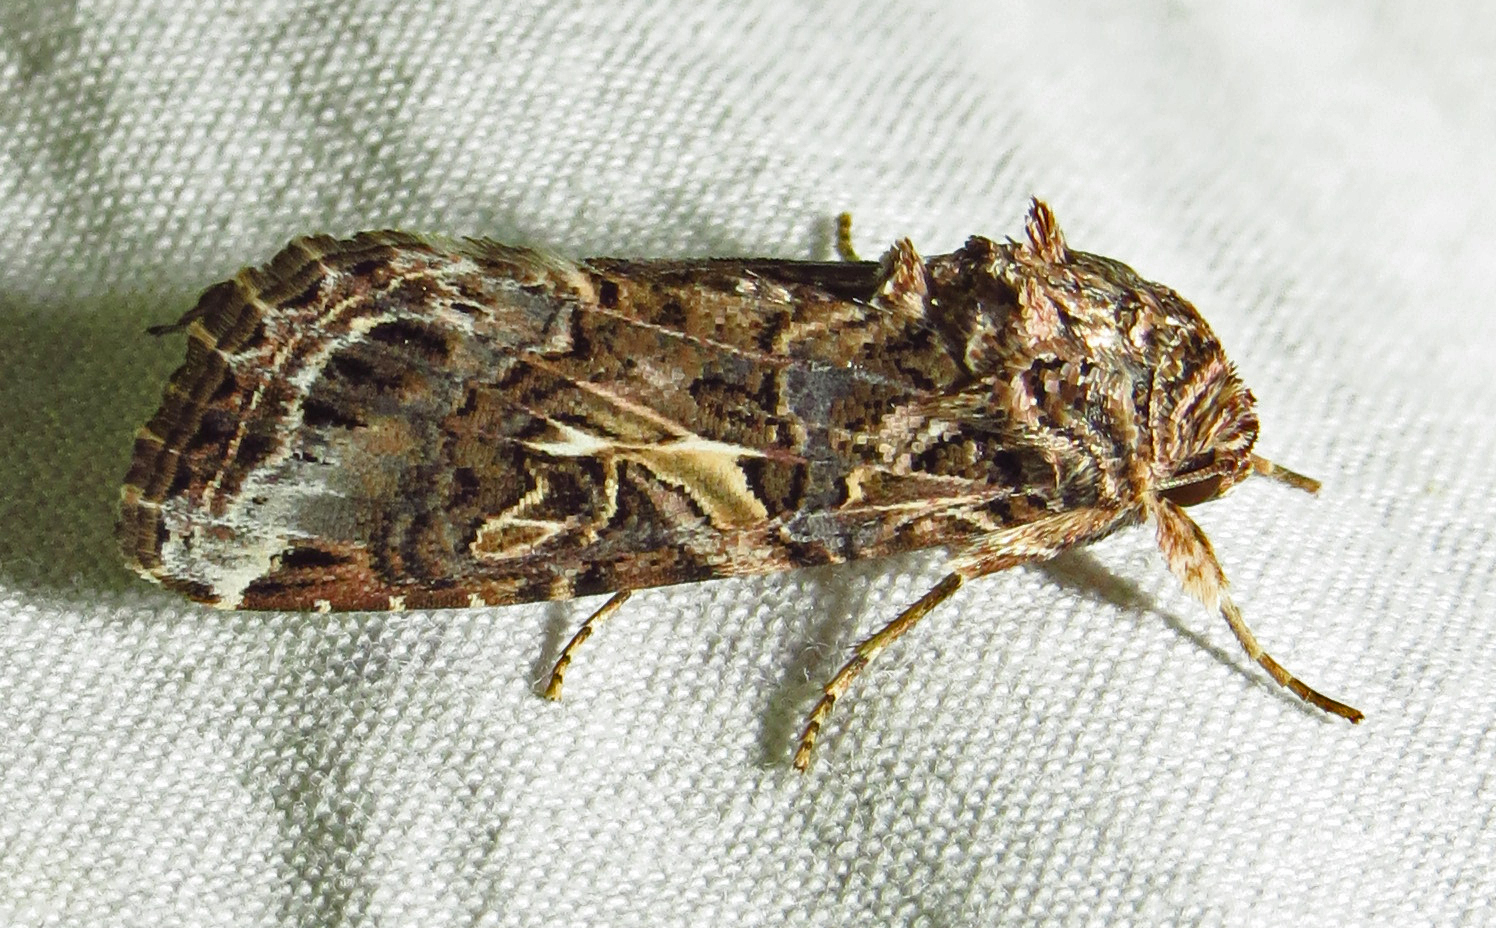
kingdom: Animalia
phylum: Arthropoda
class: Insecta
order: Lepidoptera
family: Noctuidae
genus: Spodoptera
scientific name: Spodoptera ornithogalli
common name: Yellow-striped armyworm
